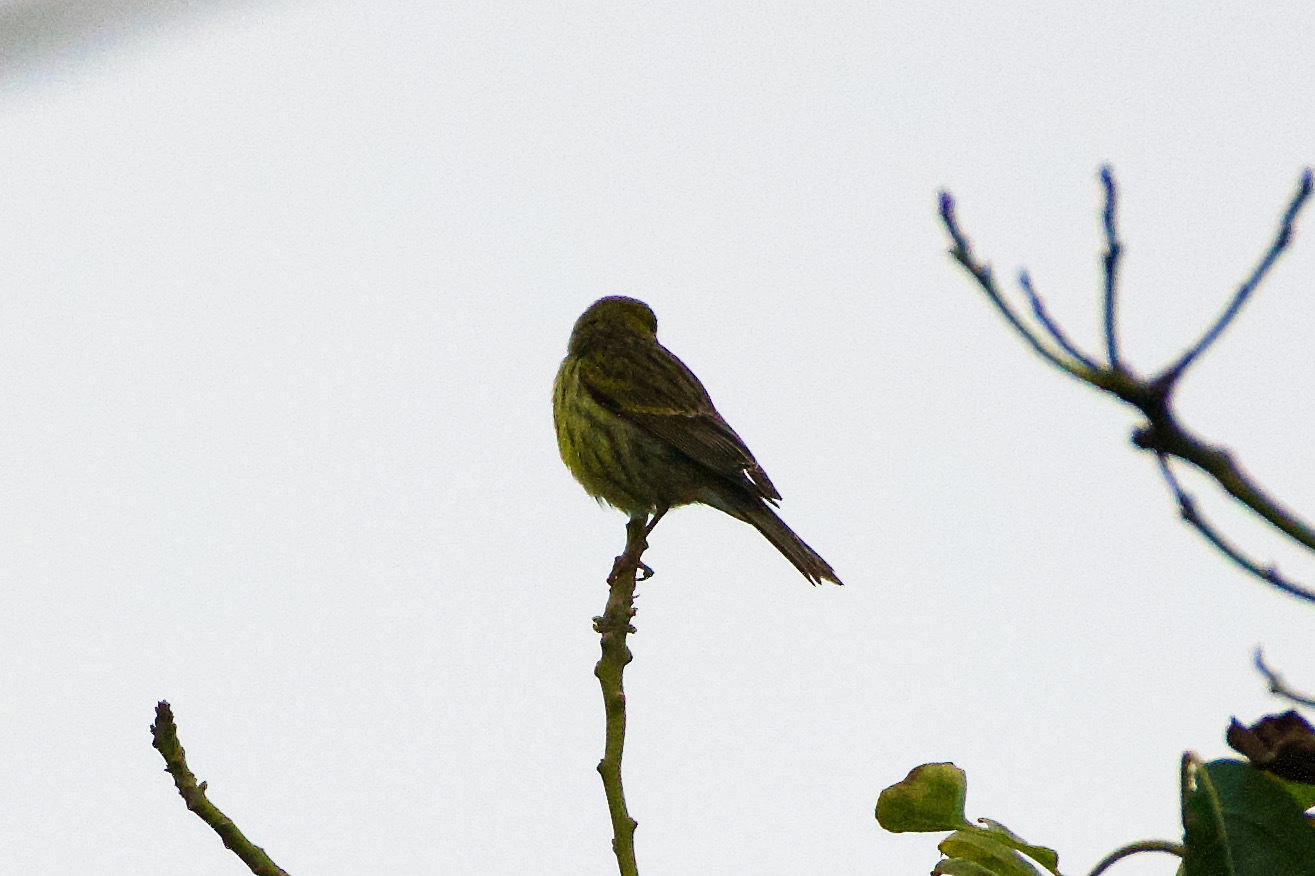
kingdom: Animalia
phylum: Chordata
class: Aves
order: Passeriformes
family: Fringillidae
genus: Serinus
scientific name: Serinus canaria
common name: Atlantic canary
